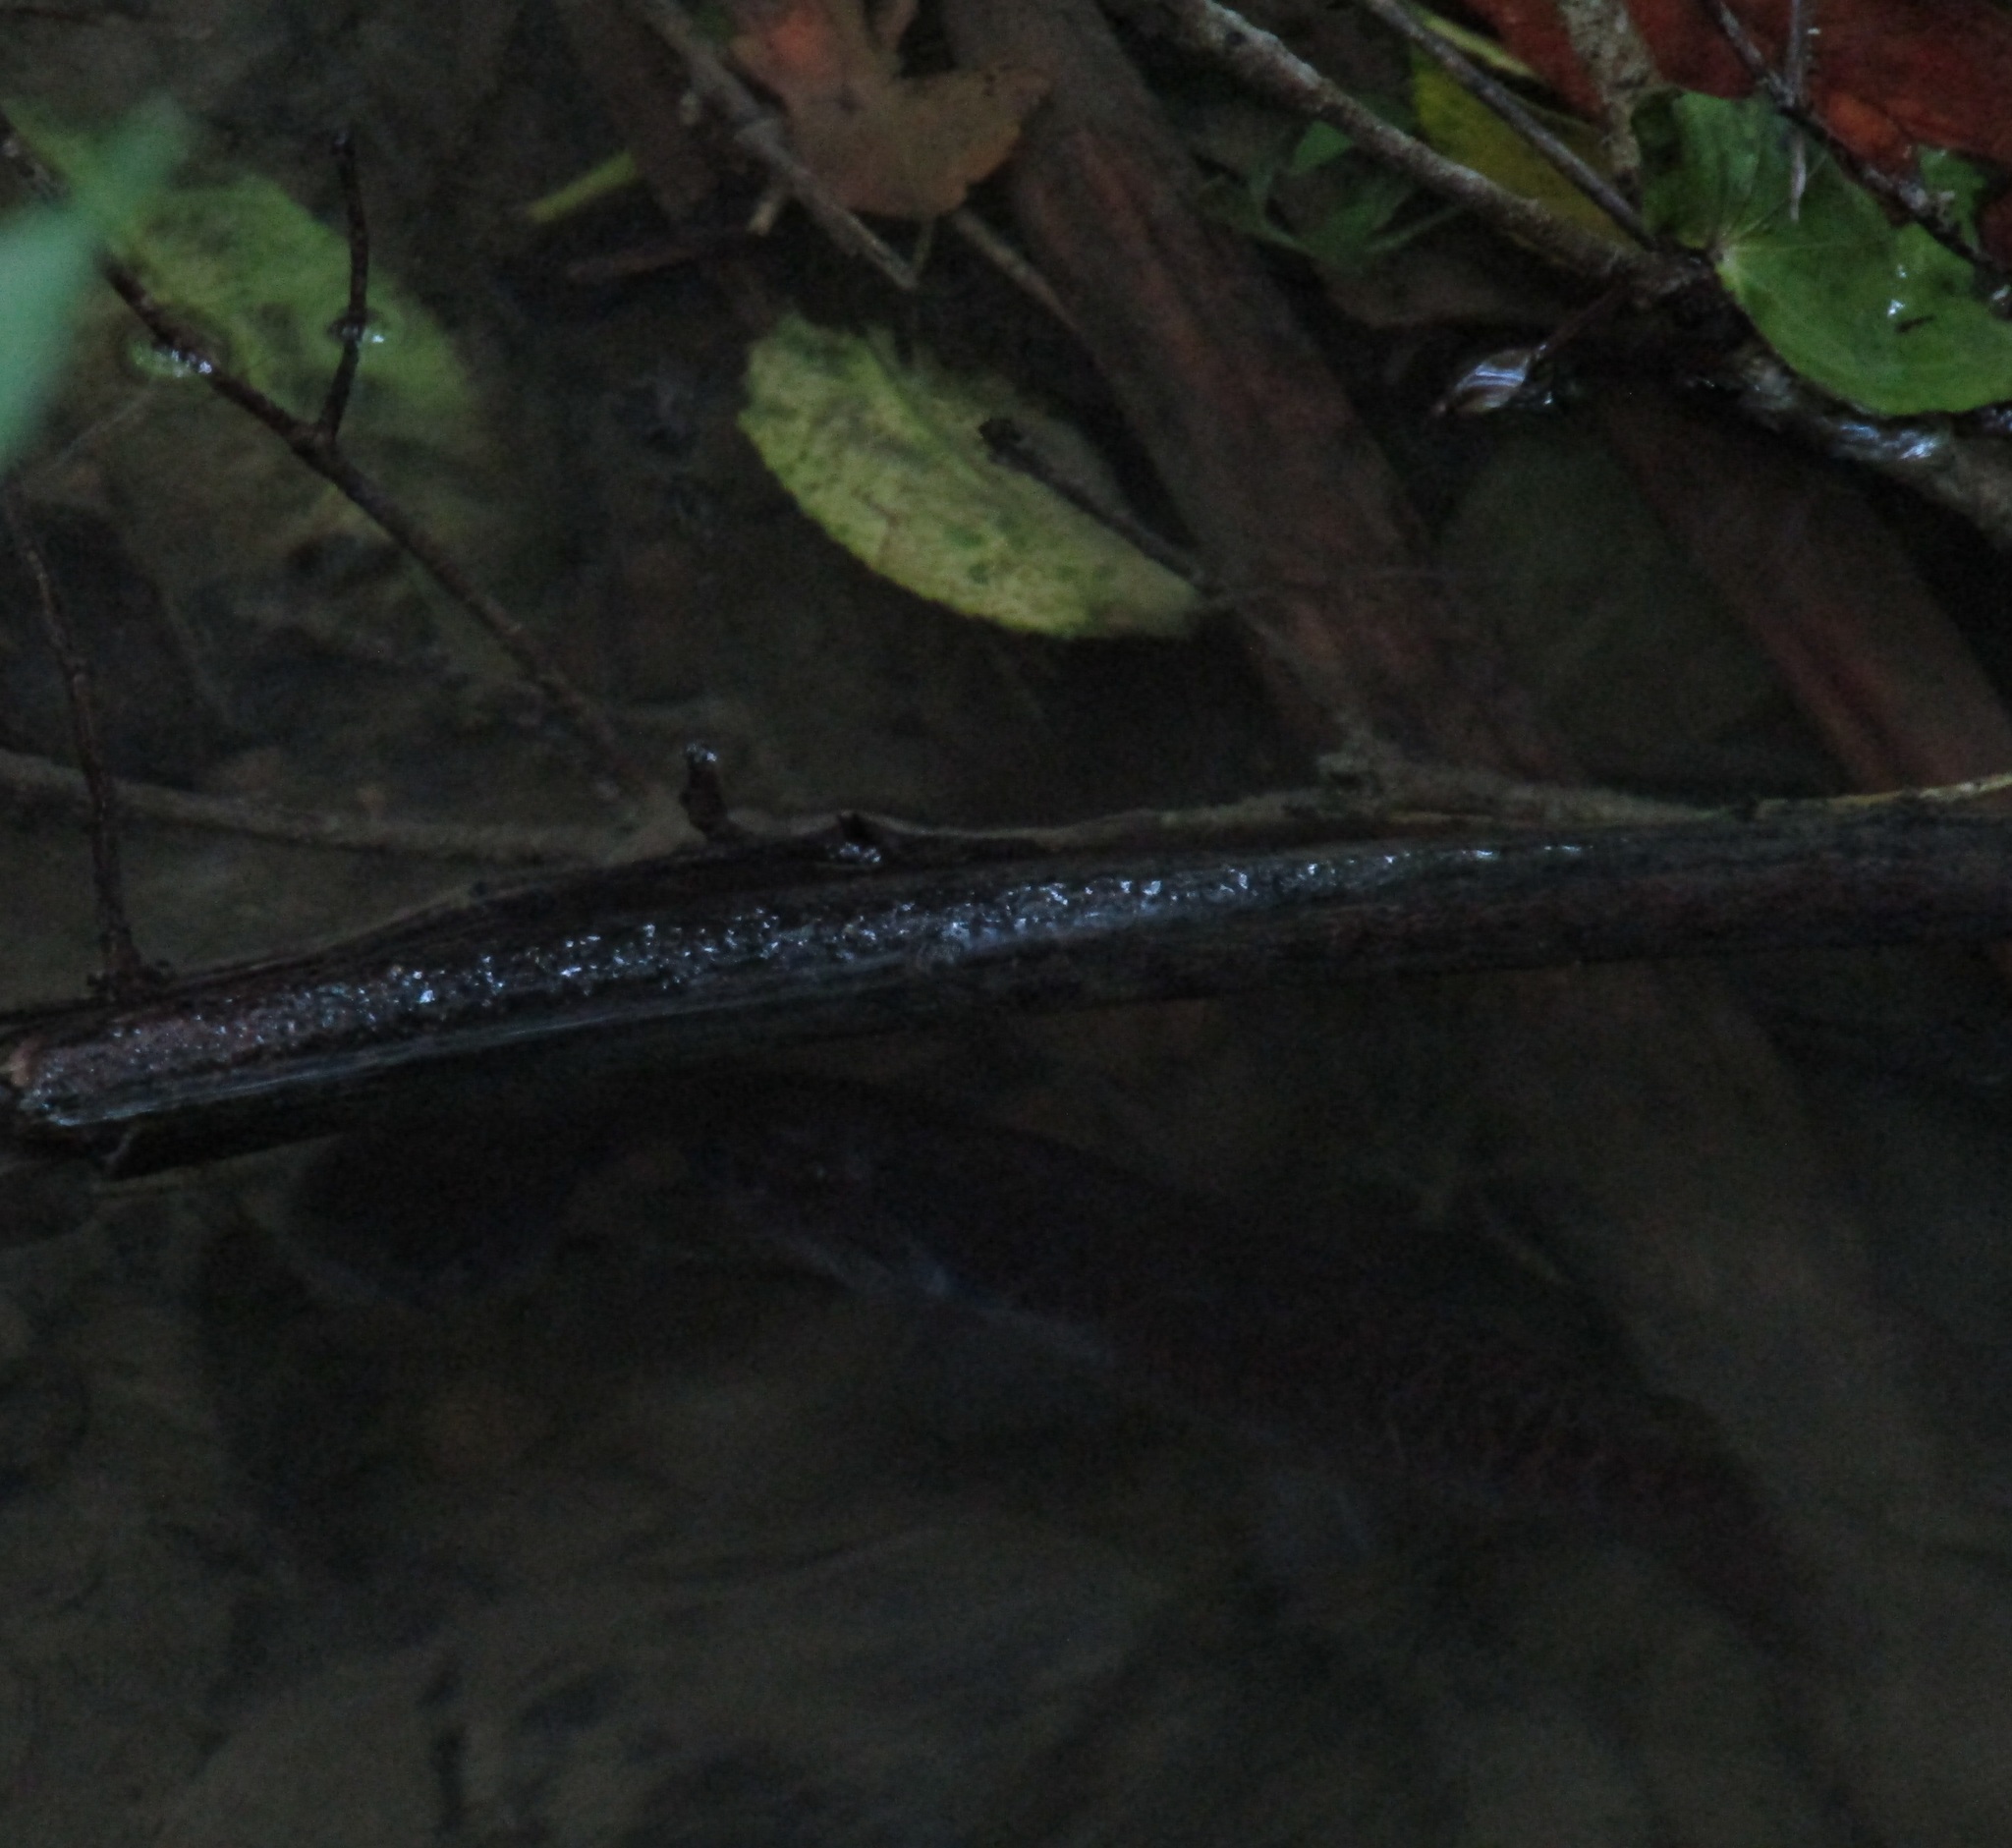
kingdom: Animalia
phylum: Chordata
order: Osmeriformes
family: Galaxiidae
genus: Galaxias
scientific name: Galaxias fasciatus
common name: Banded kokopu
